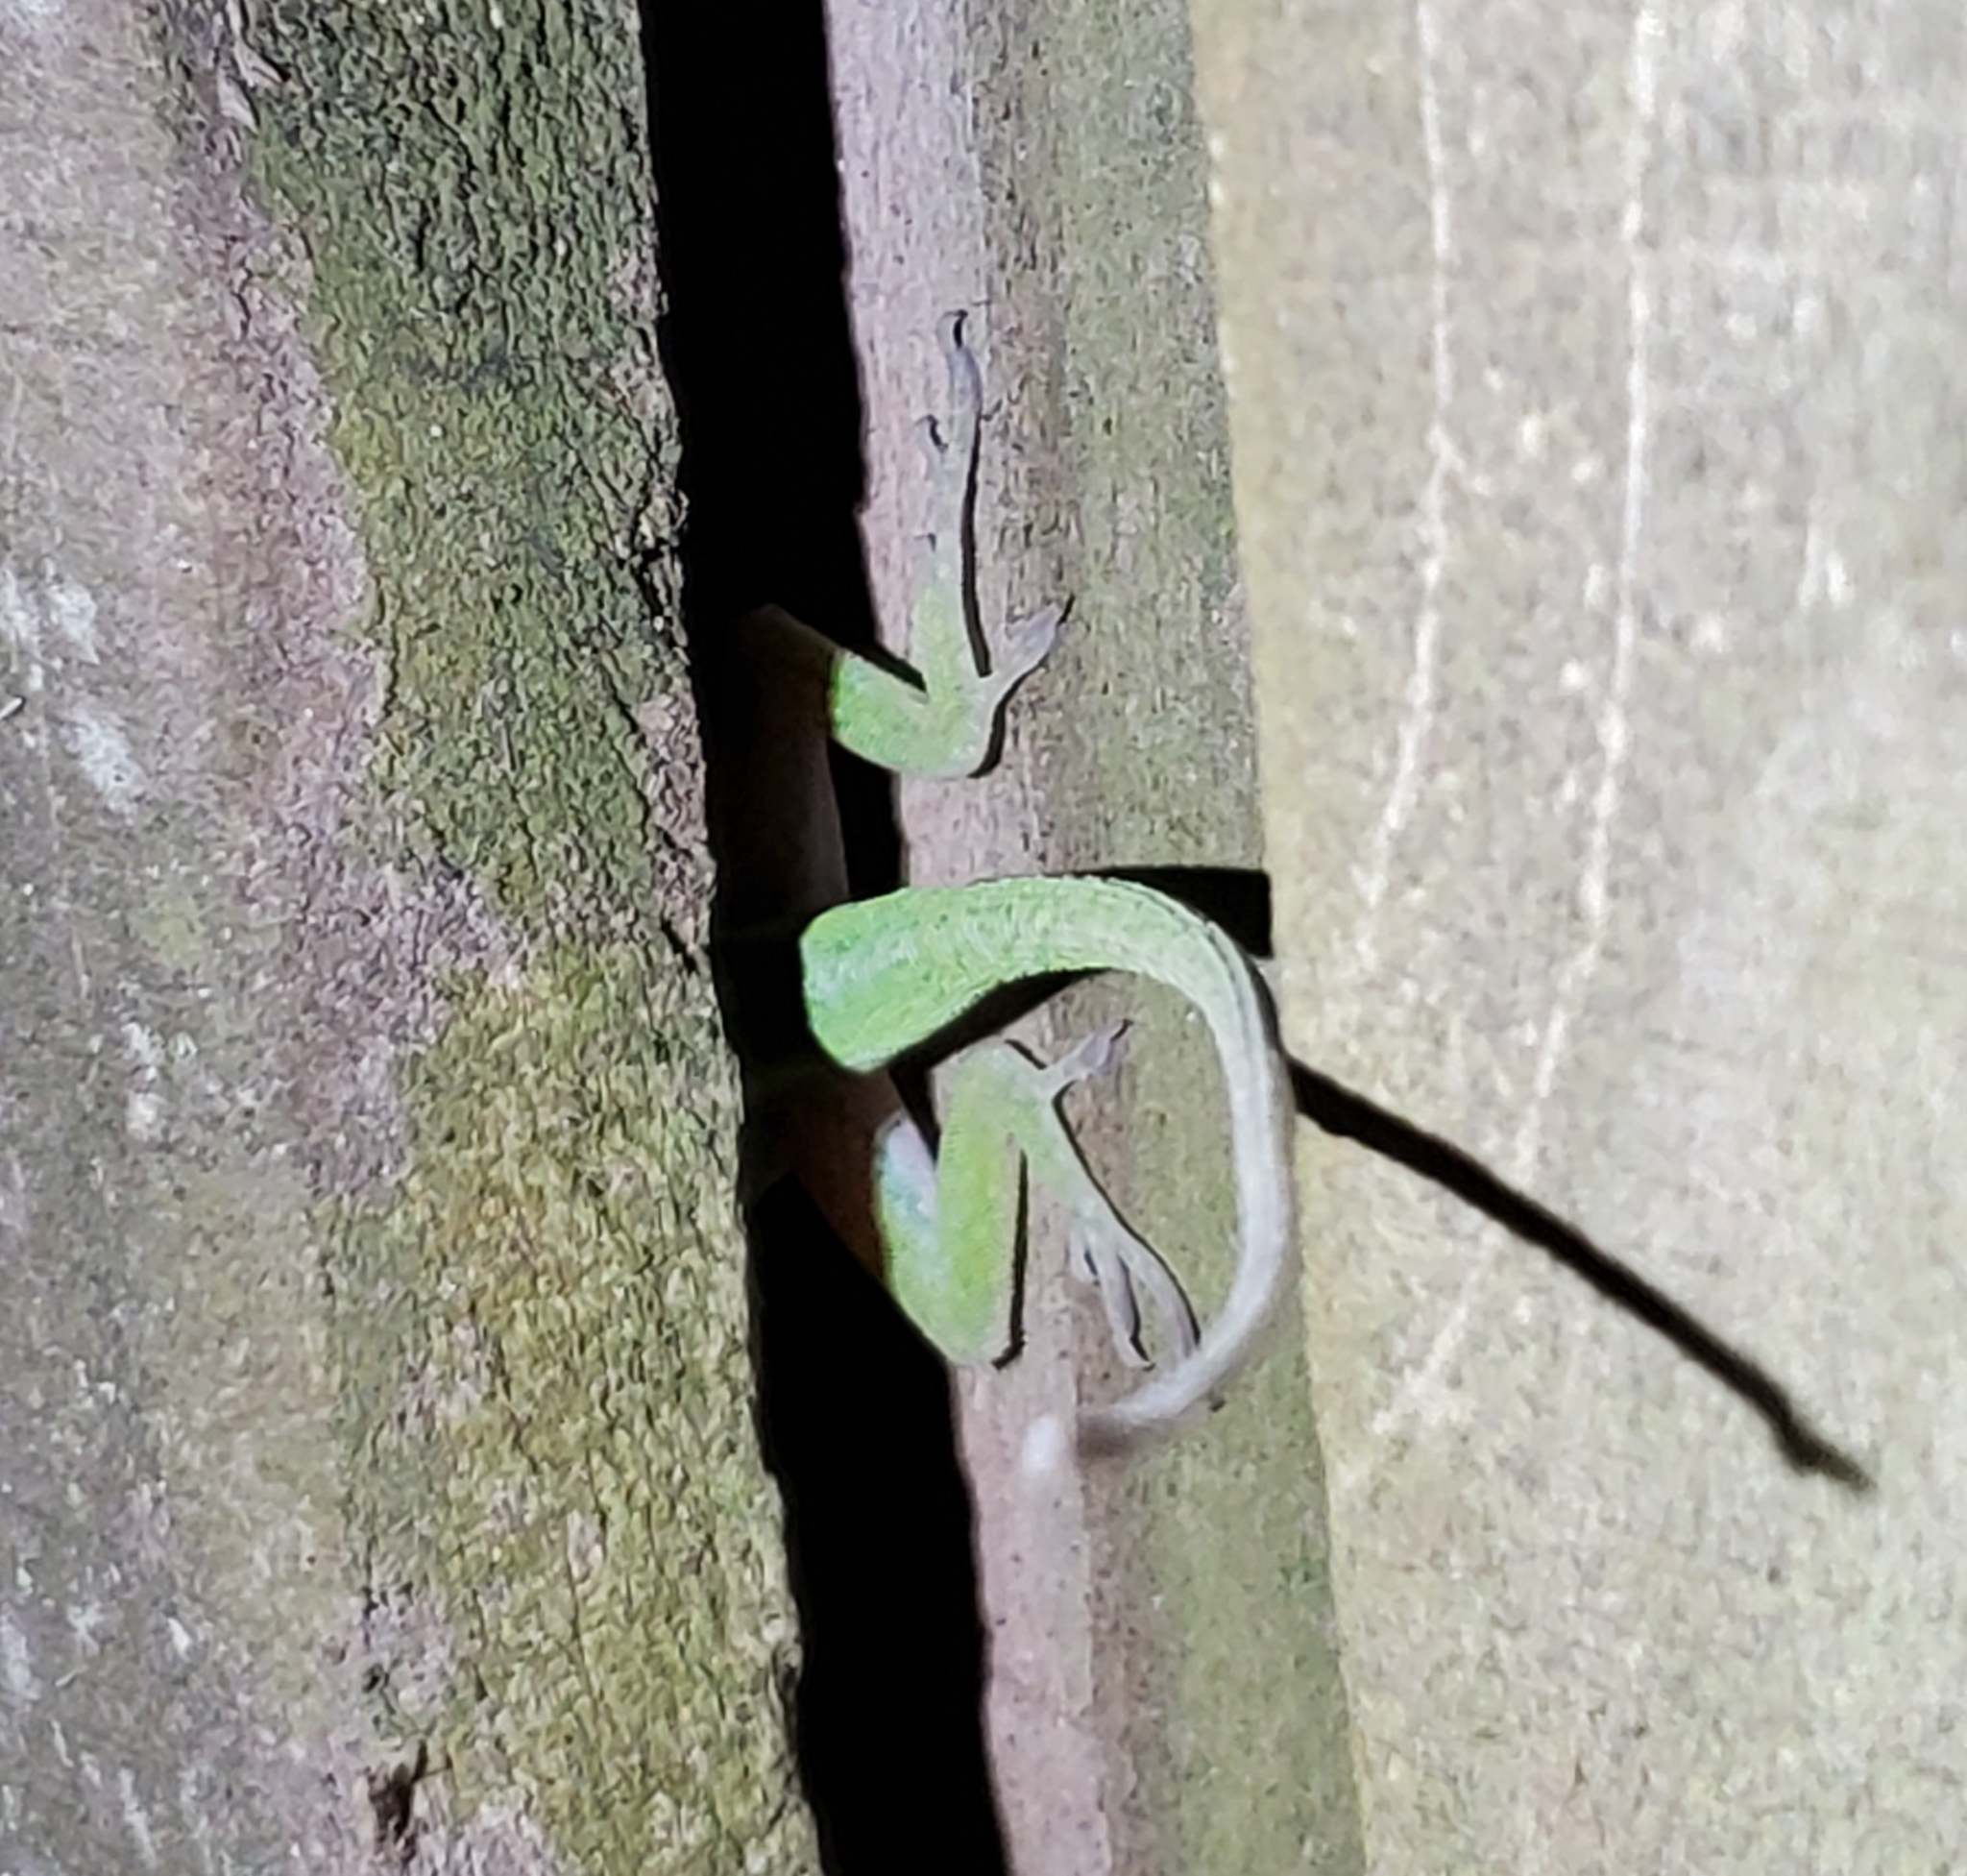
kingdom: Animalia
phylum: Chordata
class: Squamata
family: Dactyloidae
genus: Anolis
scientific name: Anolis carolinensis
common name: Green anole
